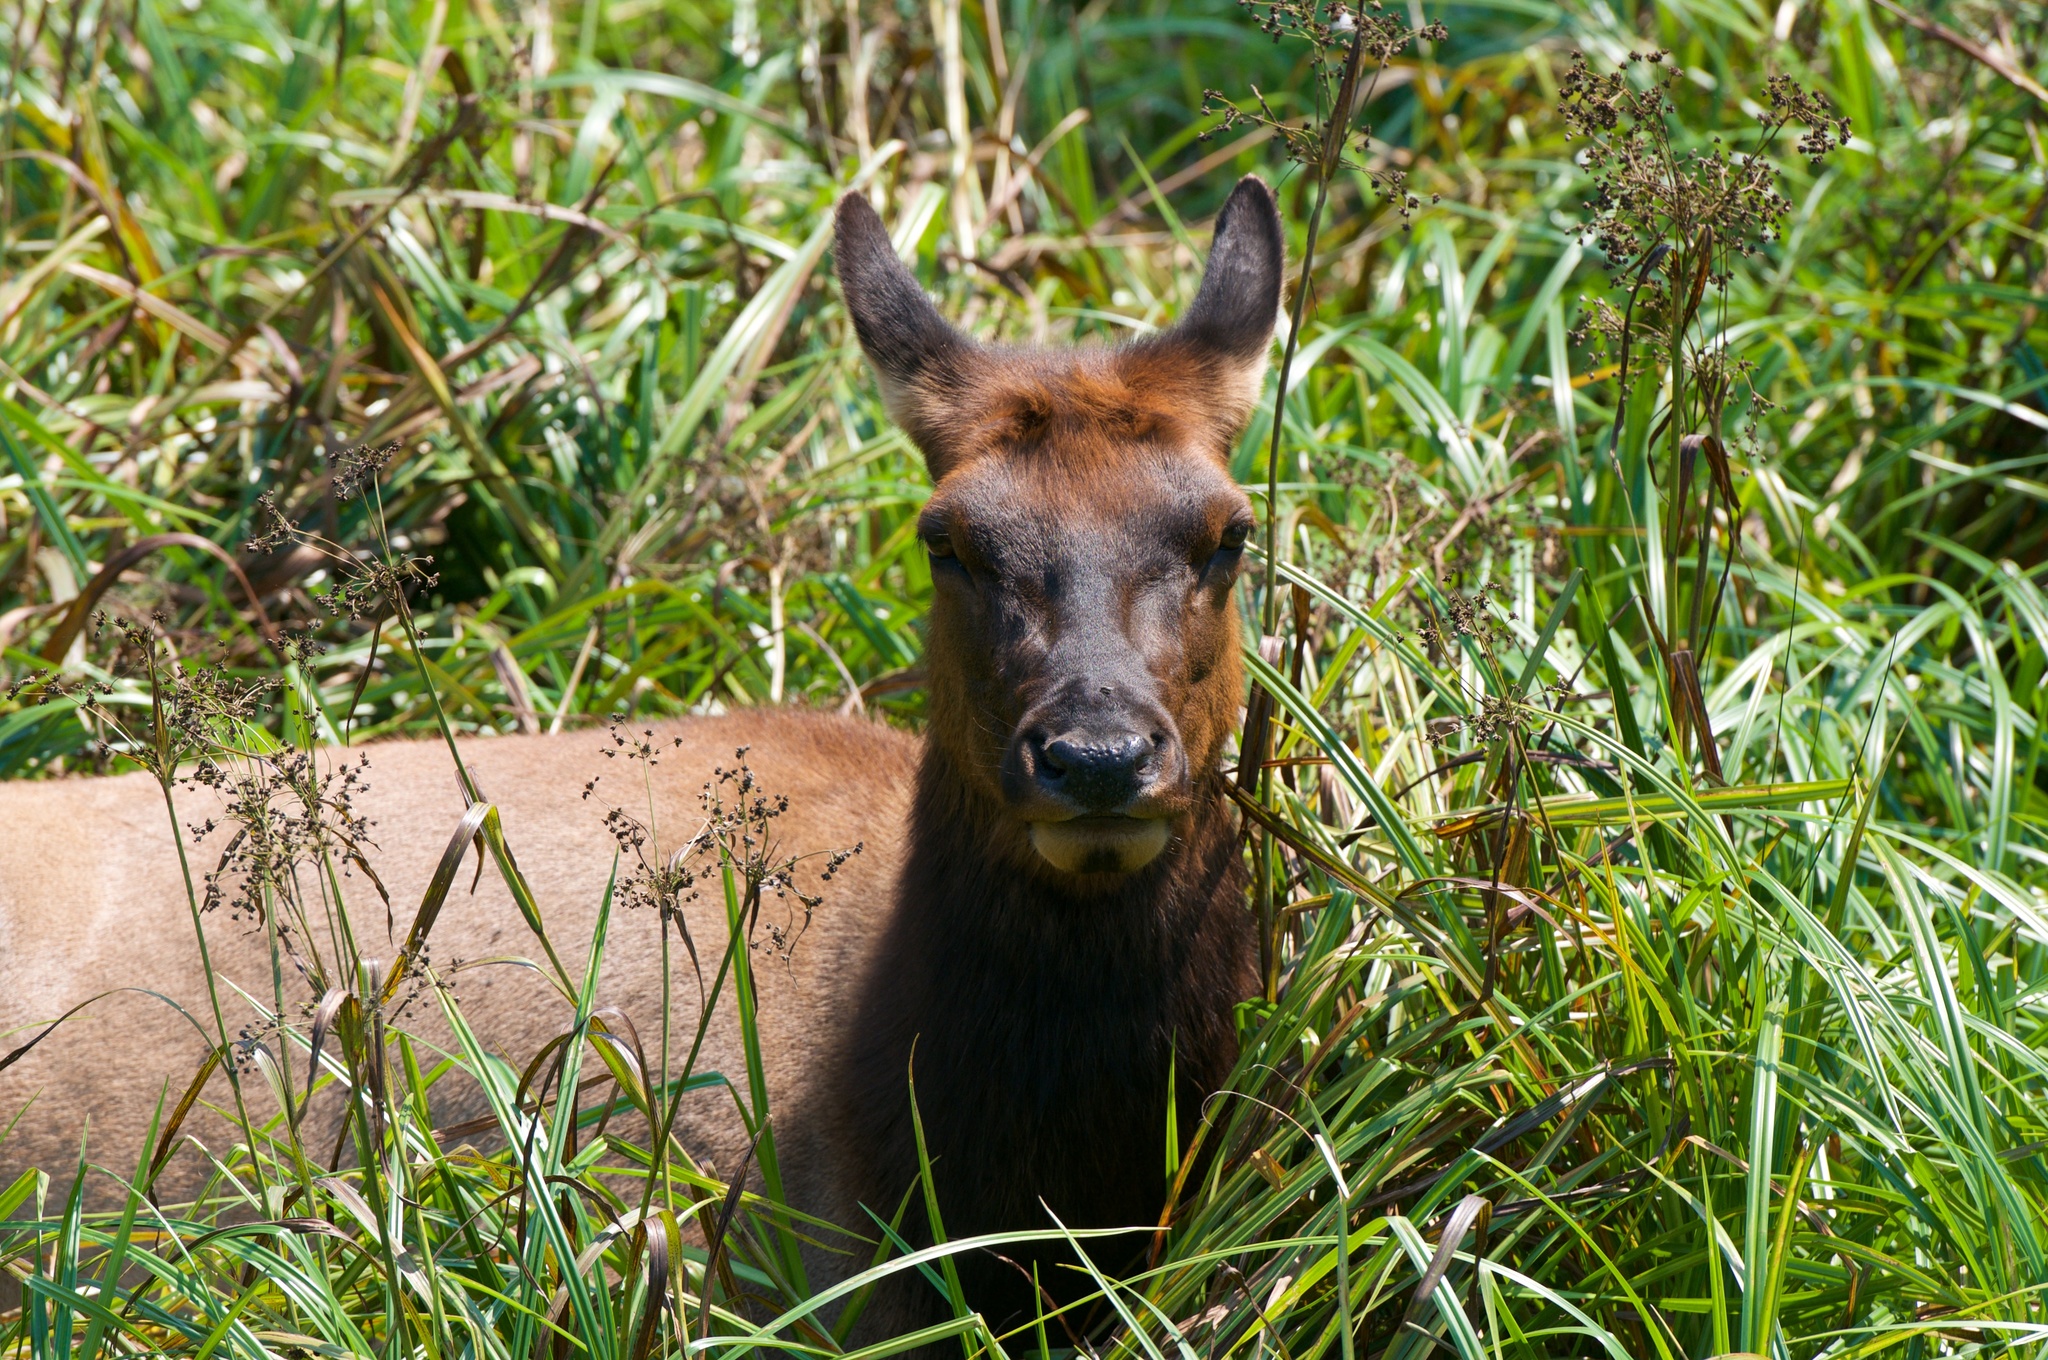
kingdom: Animalia
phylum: Chordata
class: Mammalia
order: Artiodactyla
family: Cervidae
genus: Cervus
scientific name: Cervus elaphus
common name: Red deer
